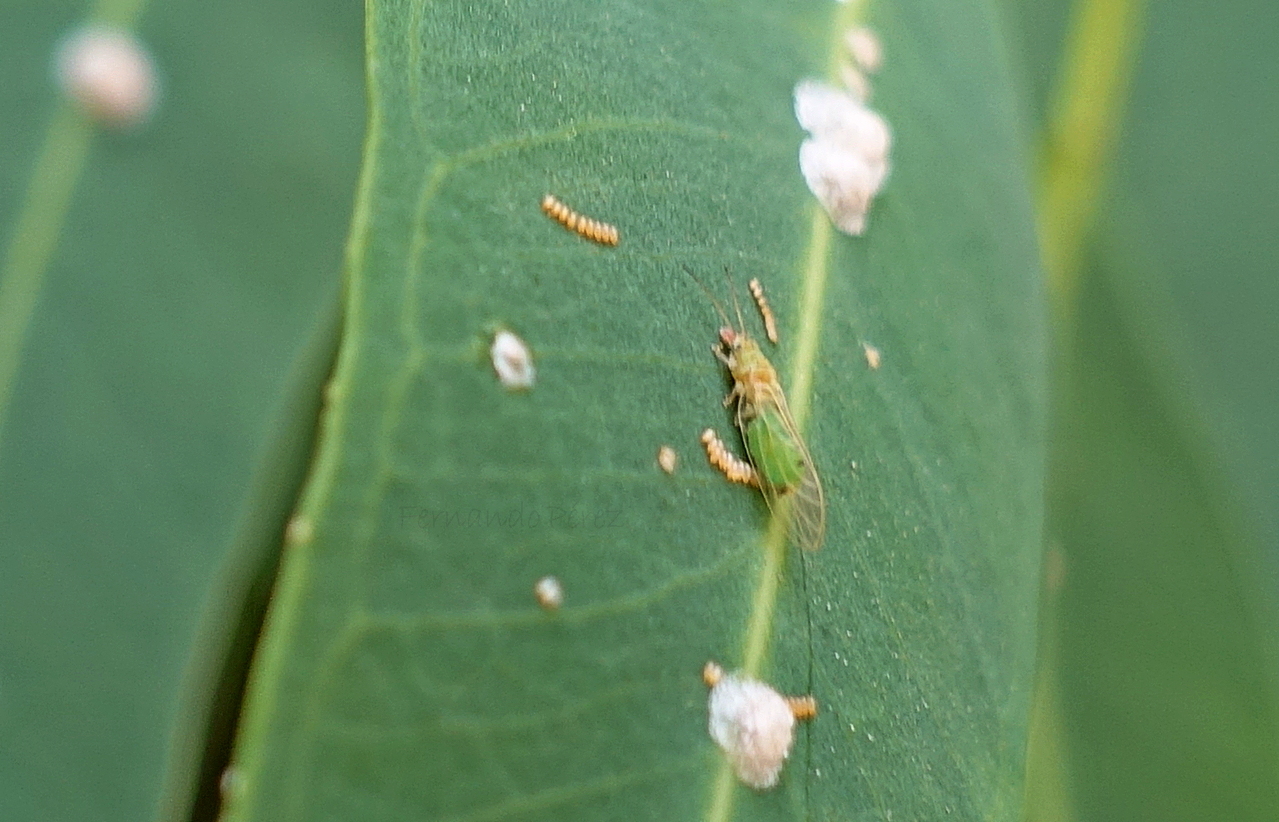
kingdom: Animalia
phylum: Arthropoda
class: Insecta
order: Hemiptera
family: Aphalaridae
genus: Glycaspis
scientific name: Glycaspis brimblecombei
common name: Red gum lerp psyllid
